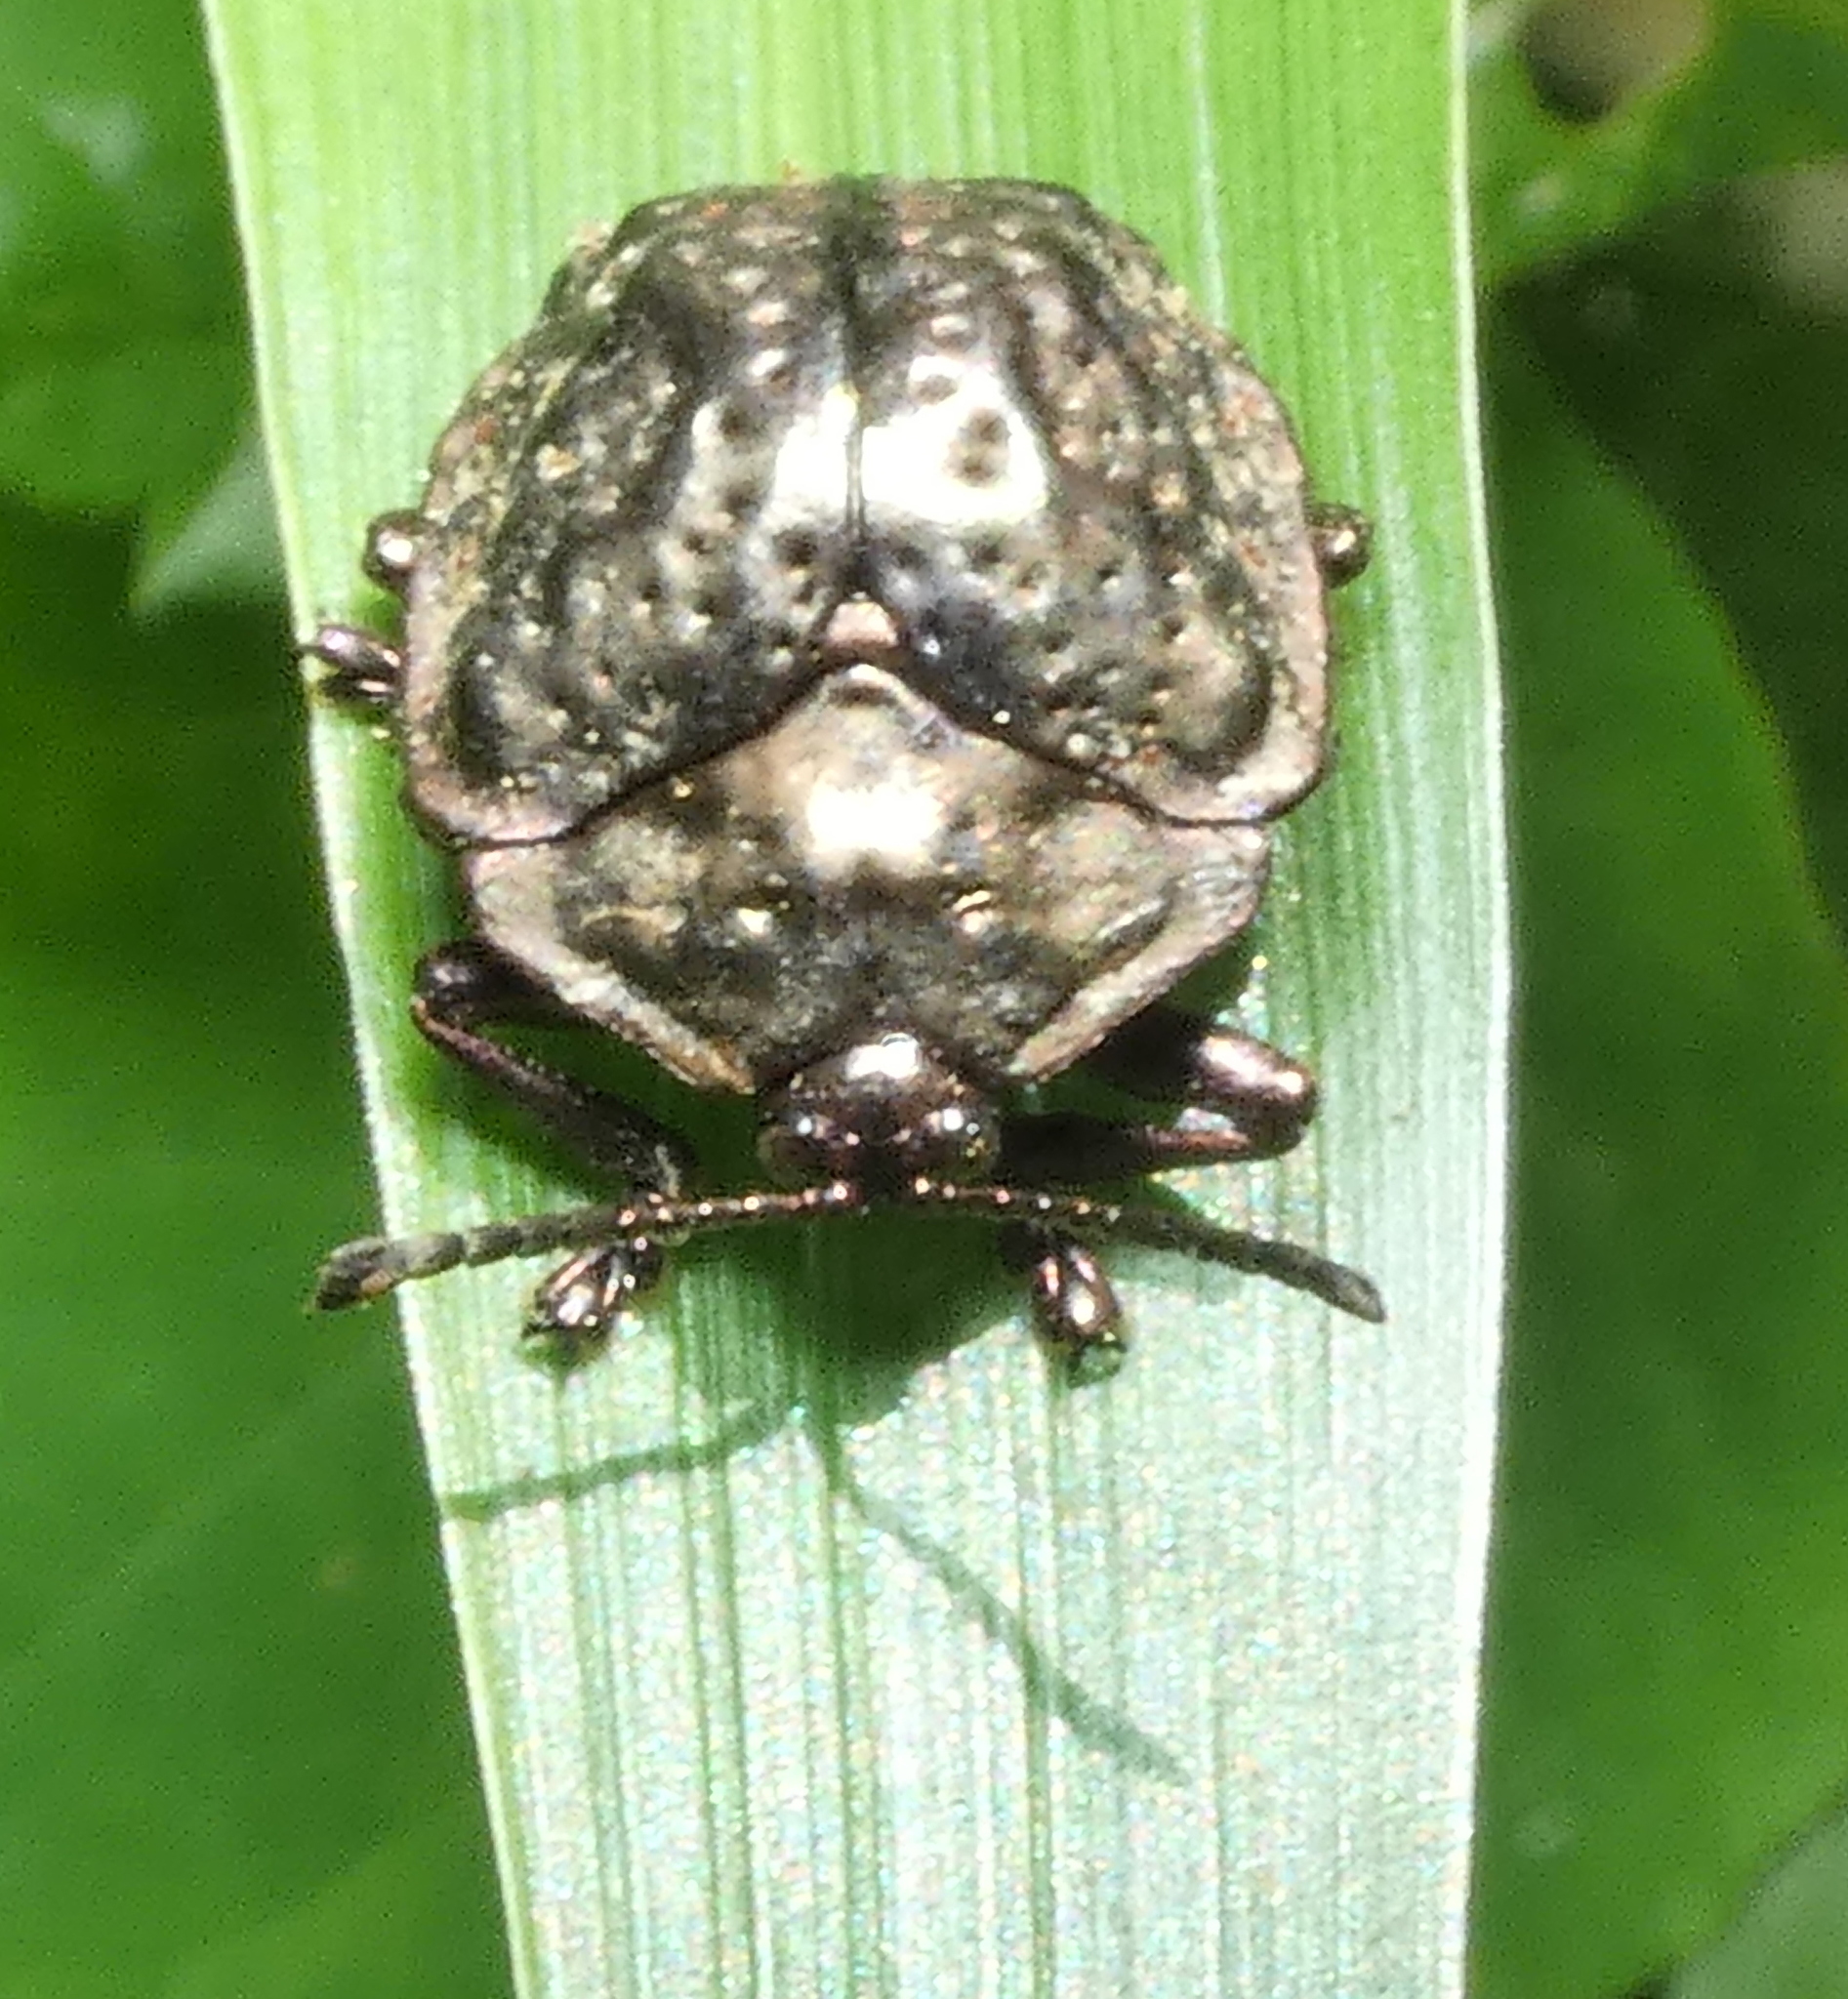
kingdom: Animalia
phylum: Arthropoda
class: Insecta
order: Coleoptera
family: Chrysomelidae
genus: Polychalca
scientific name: Polychalca aerea
